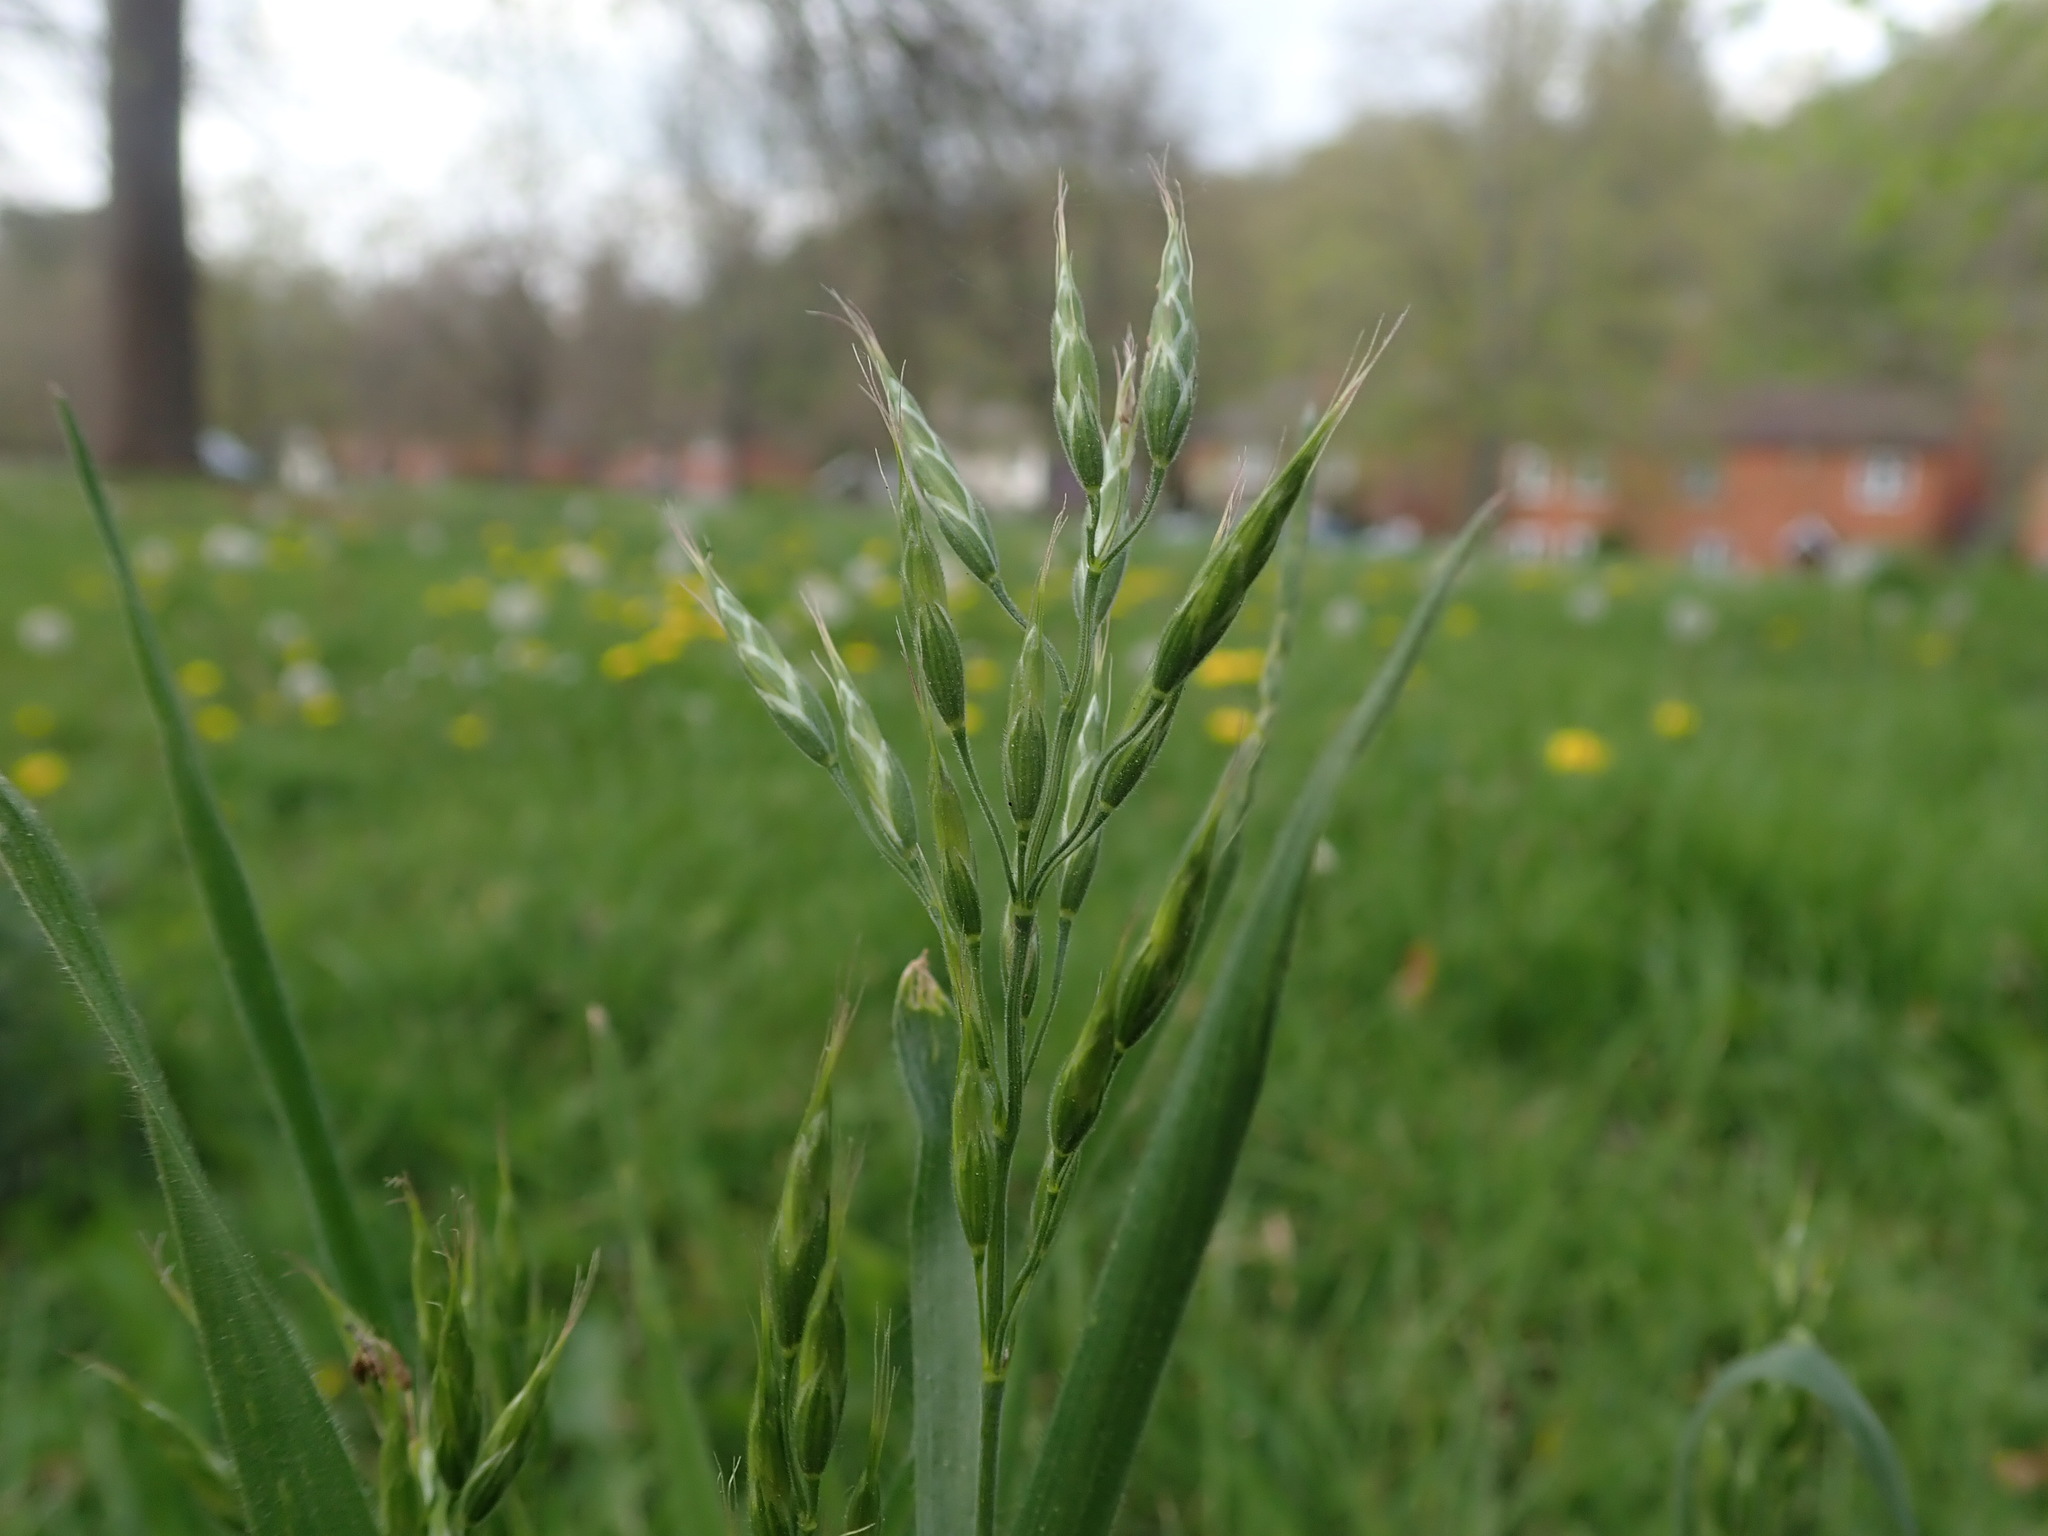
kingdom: Plantae
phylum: Tracheophyta
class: Liliopsida
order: Poales
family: Poaceae
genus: Bromus
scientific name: Bromus hordeaceus
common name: Soft brome
